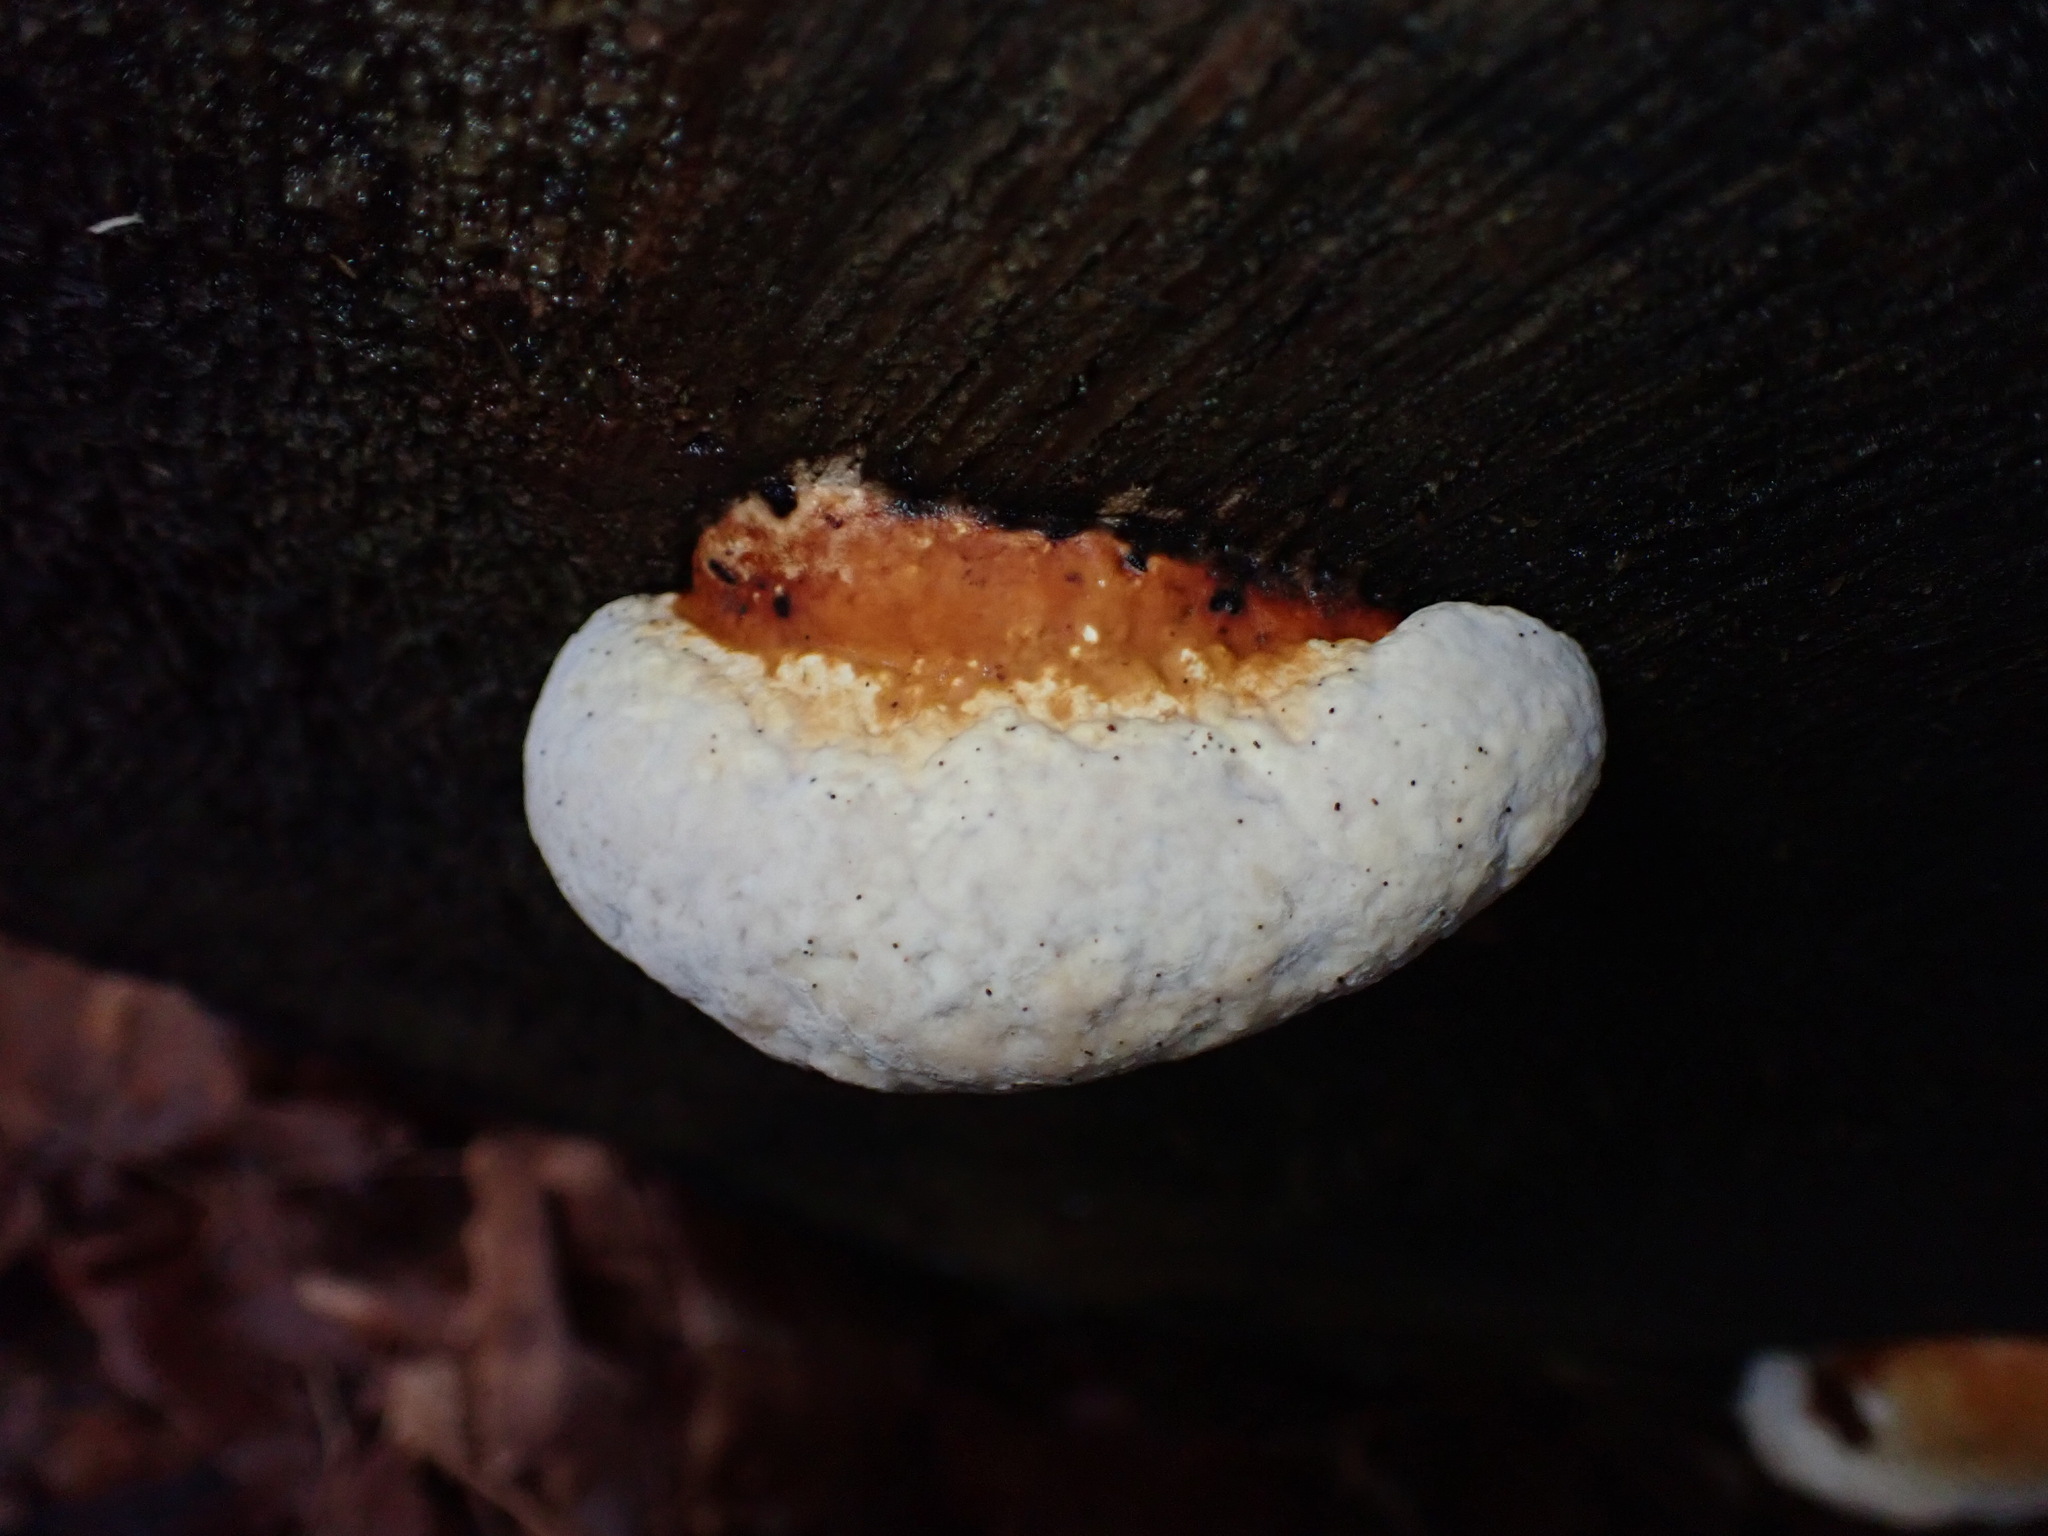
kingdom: Fungi
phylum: Basidiomycota
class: Agaricomycetes
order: Polyporales
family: Fomitopsidaceae
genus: Fomitopsis
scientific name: Fomitopsis mounceae
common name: Northern red belt
